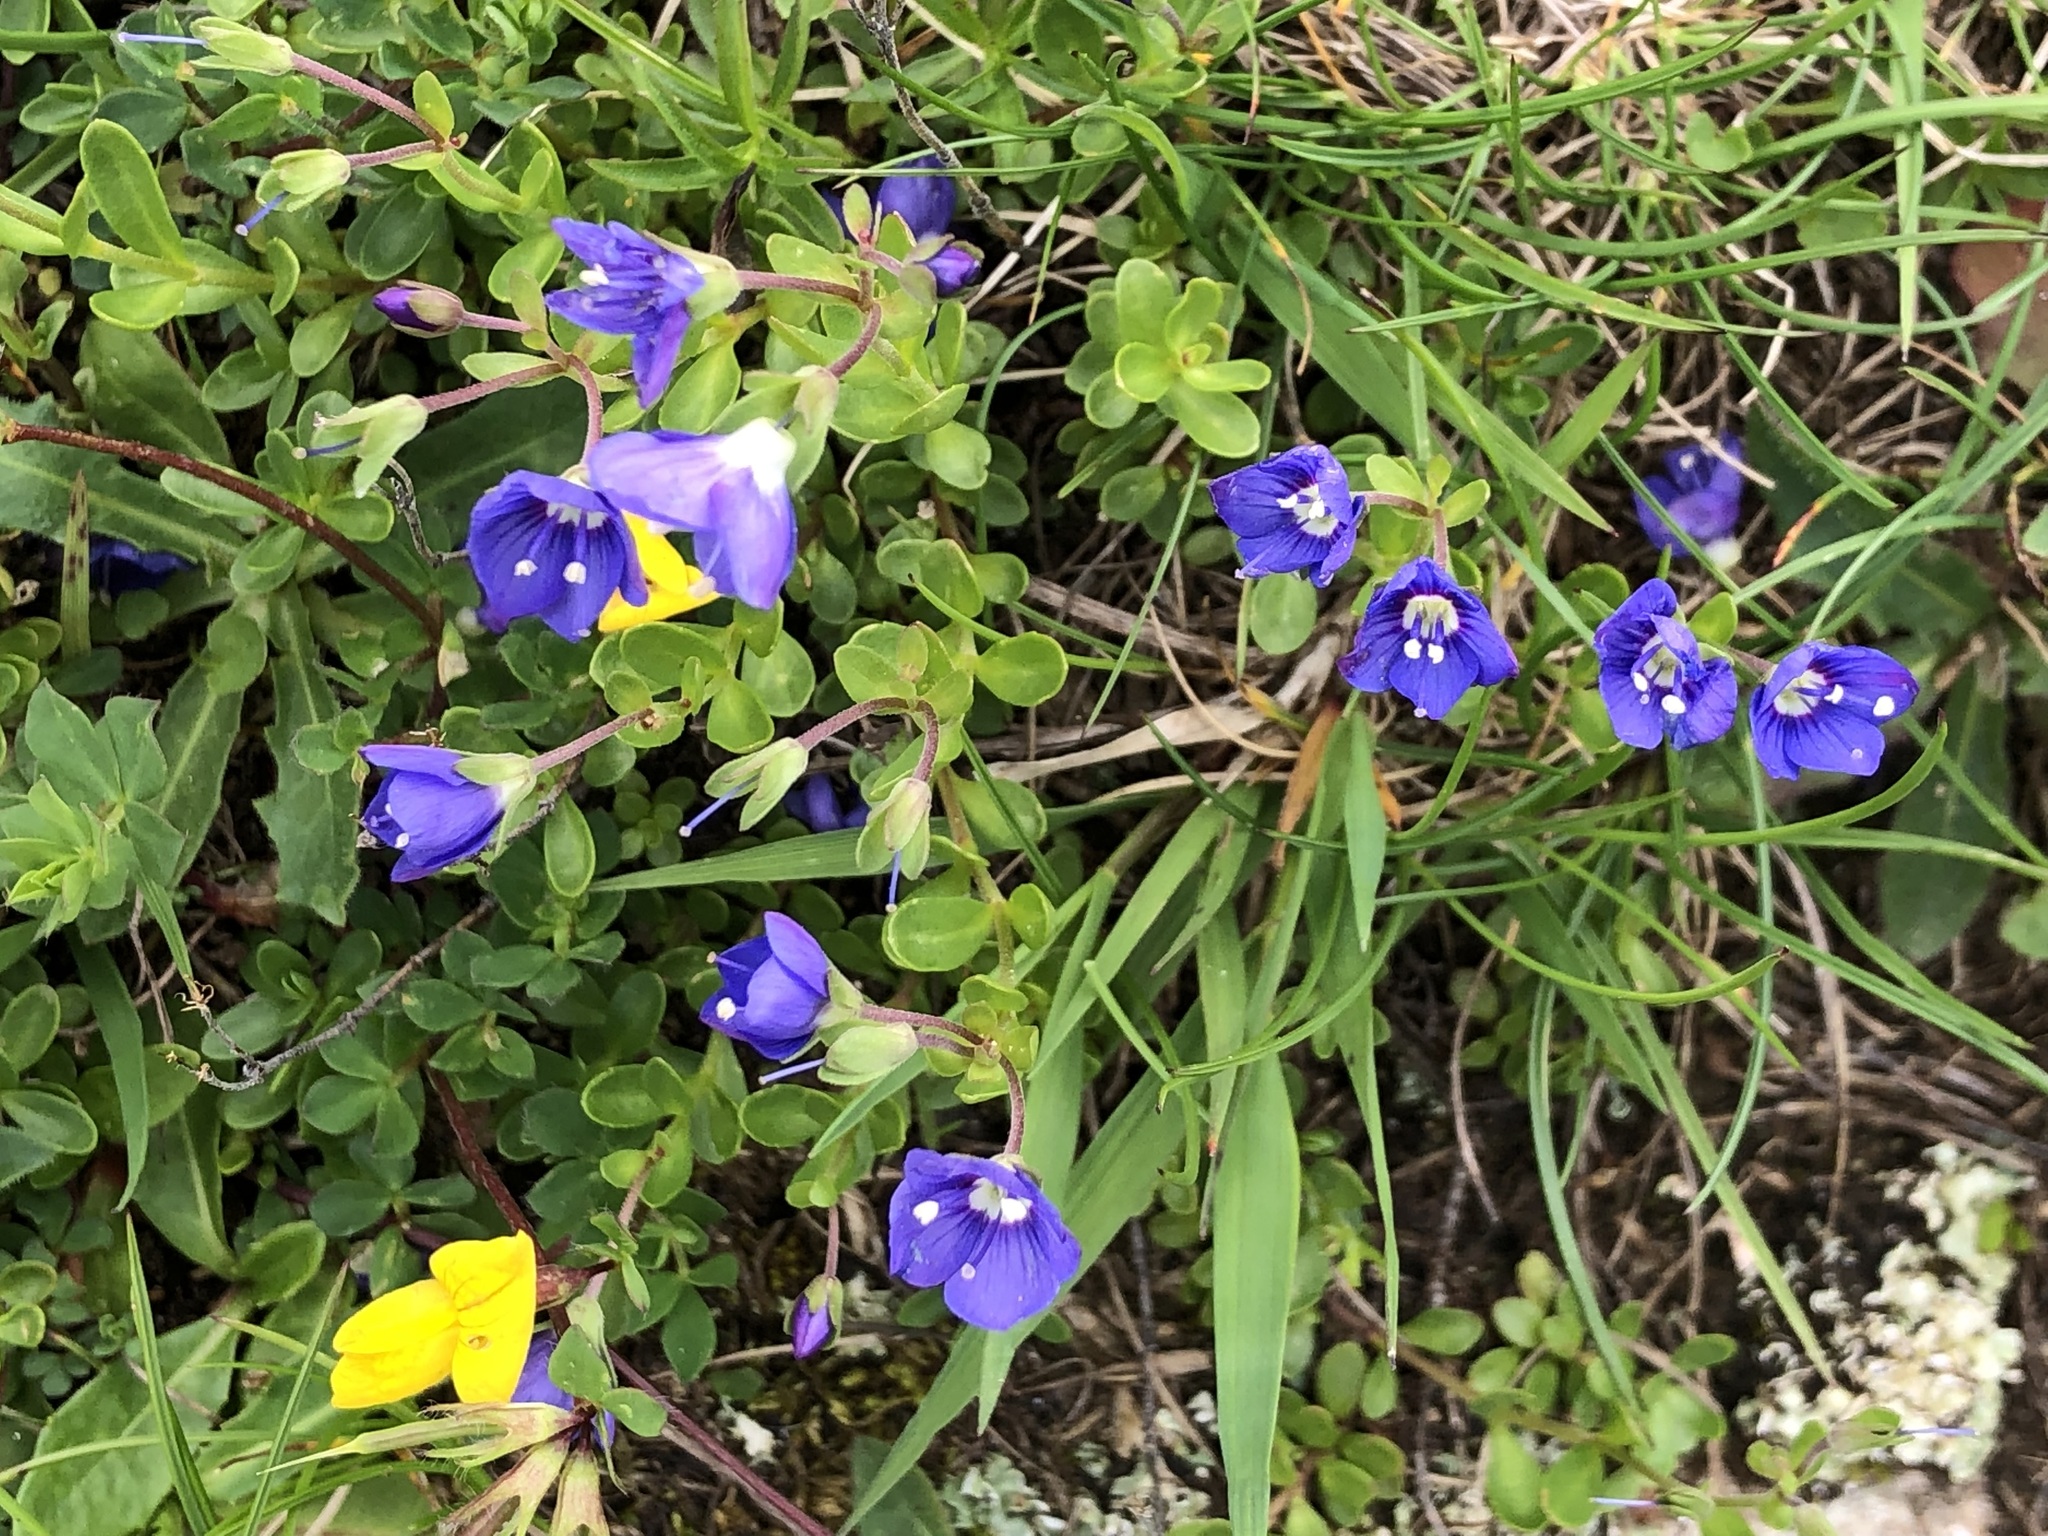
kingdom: Plantae
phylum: Tracheophyta
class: Magnoliopsida
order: Lamiales
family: Plantaginaceae
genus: Veronica
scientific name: Veronica fruticans
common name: Rock speedwell
